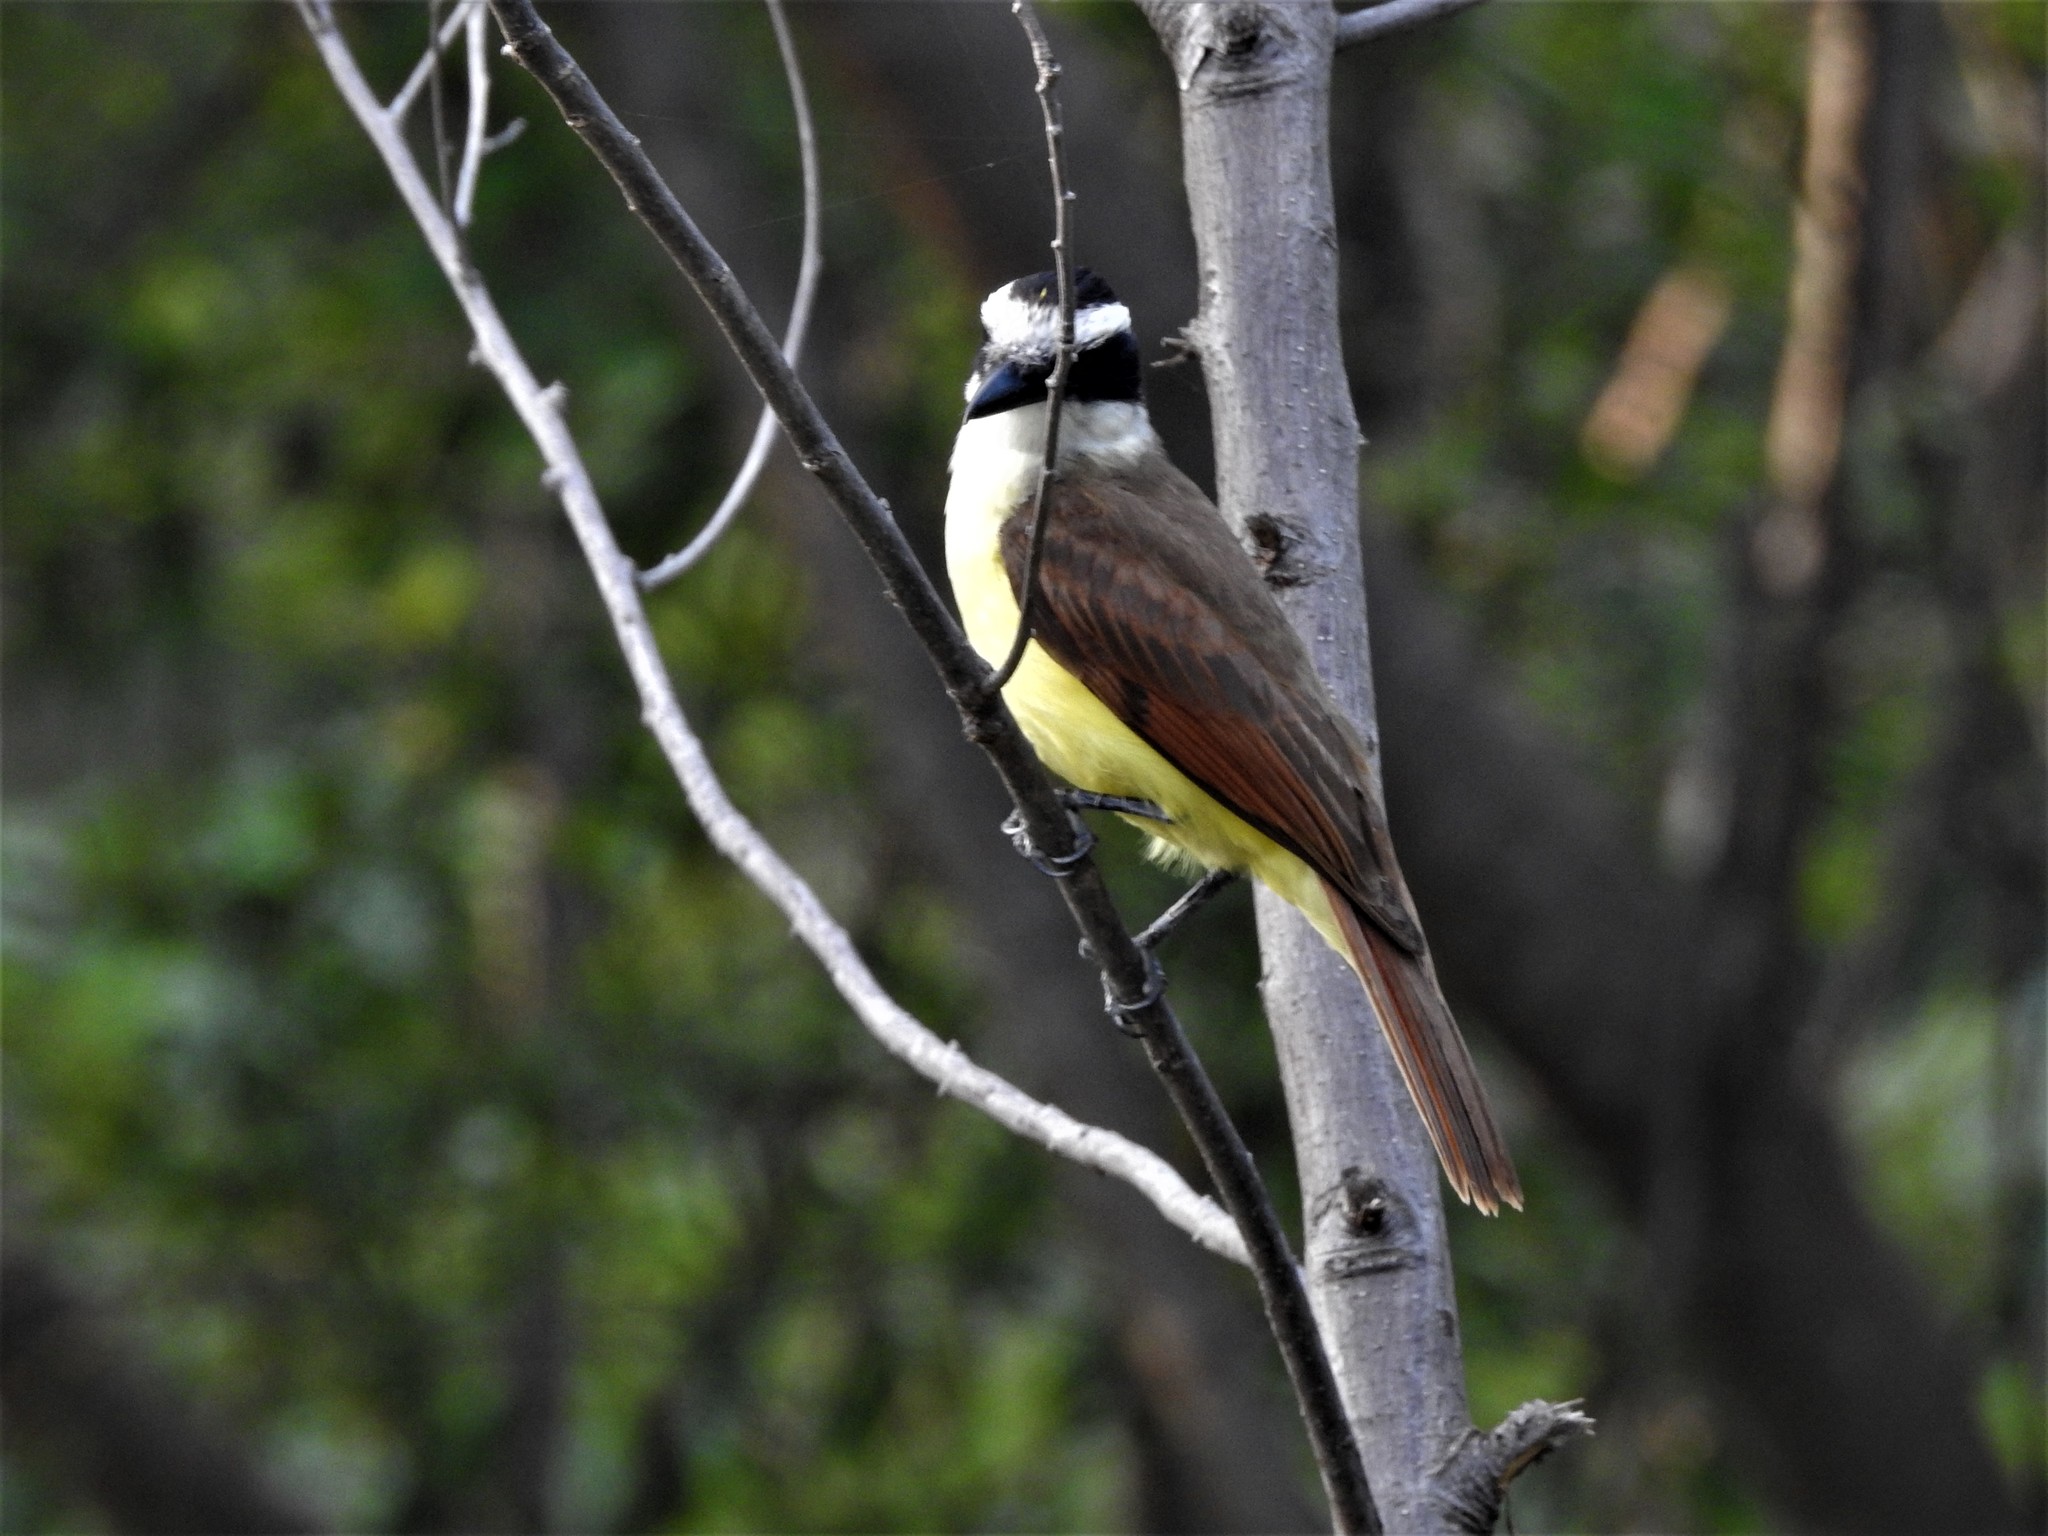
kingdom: Animalia
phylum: Chordata
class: Aves
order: Passeriformes
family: Tyrannidae
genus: Pitangus
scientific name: Pitangus sulphuratus
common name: Great kiskadee
